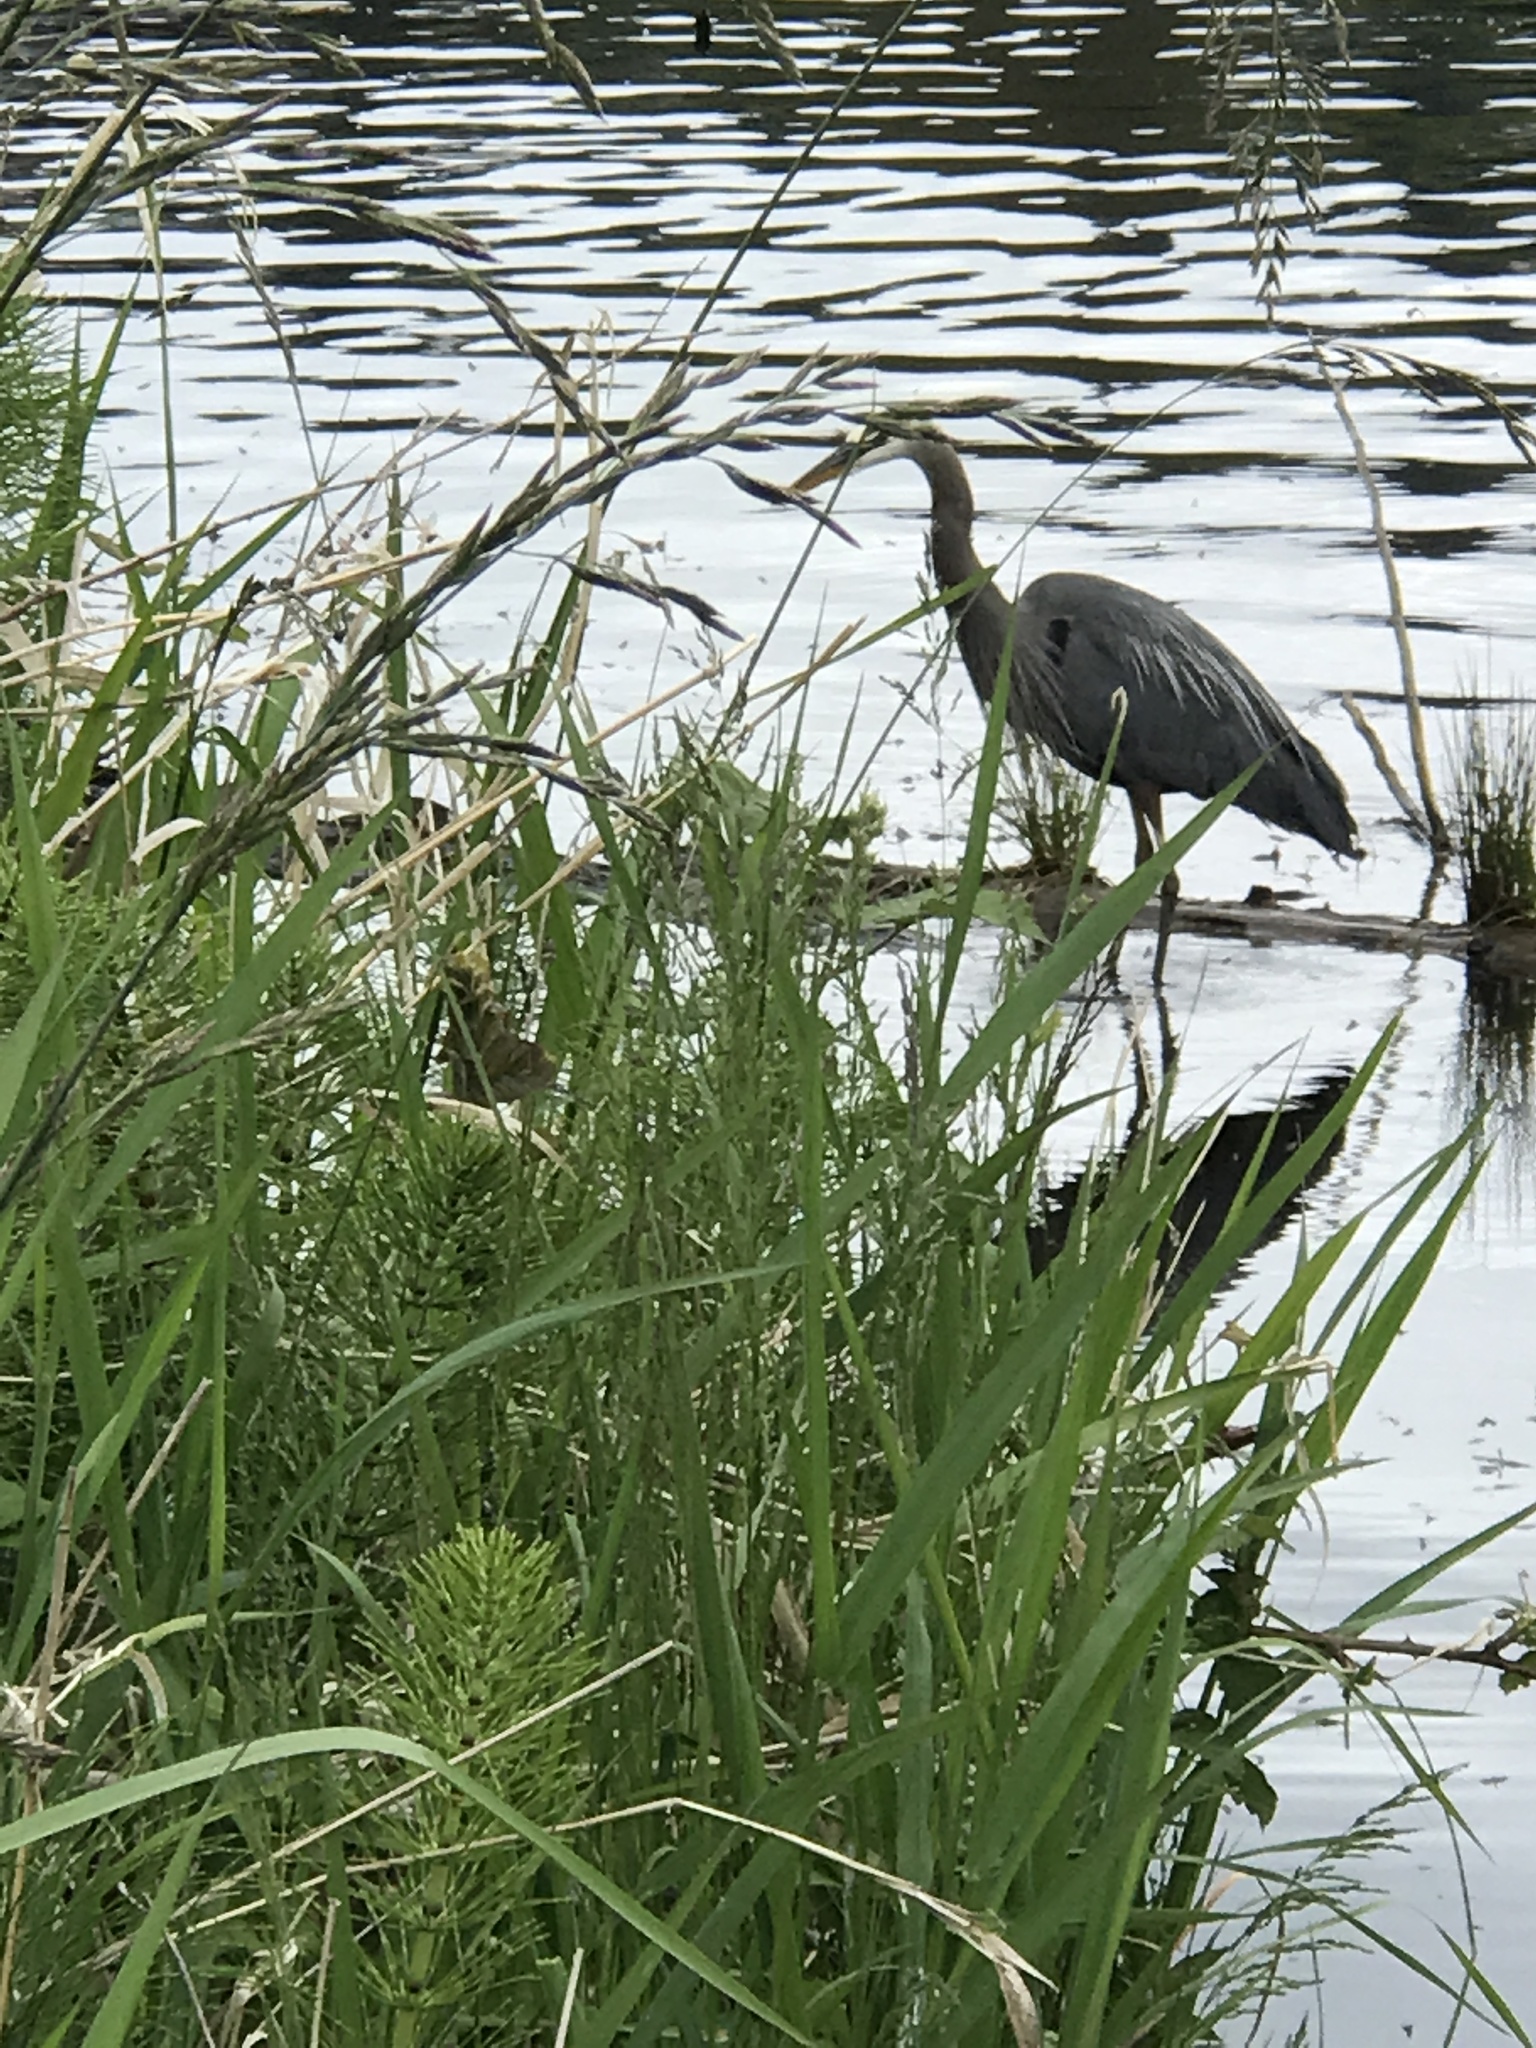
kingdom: Animalia
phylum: Chordata
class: Aves
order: Pelecaniformes
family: Ardeidae
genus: Ardea
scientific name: Ardea herodias
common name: Great blue heron
